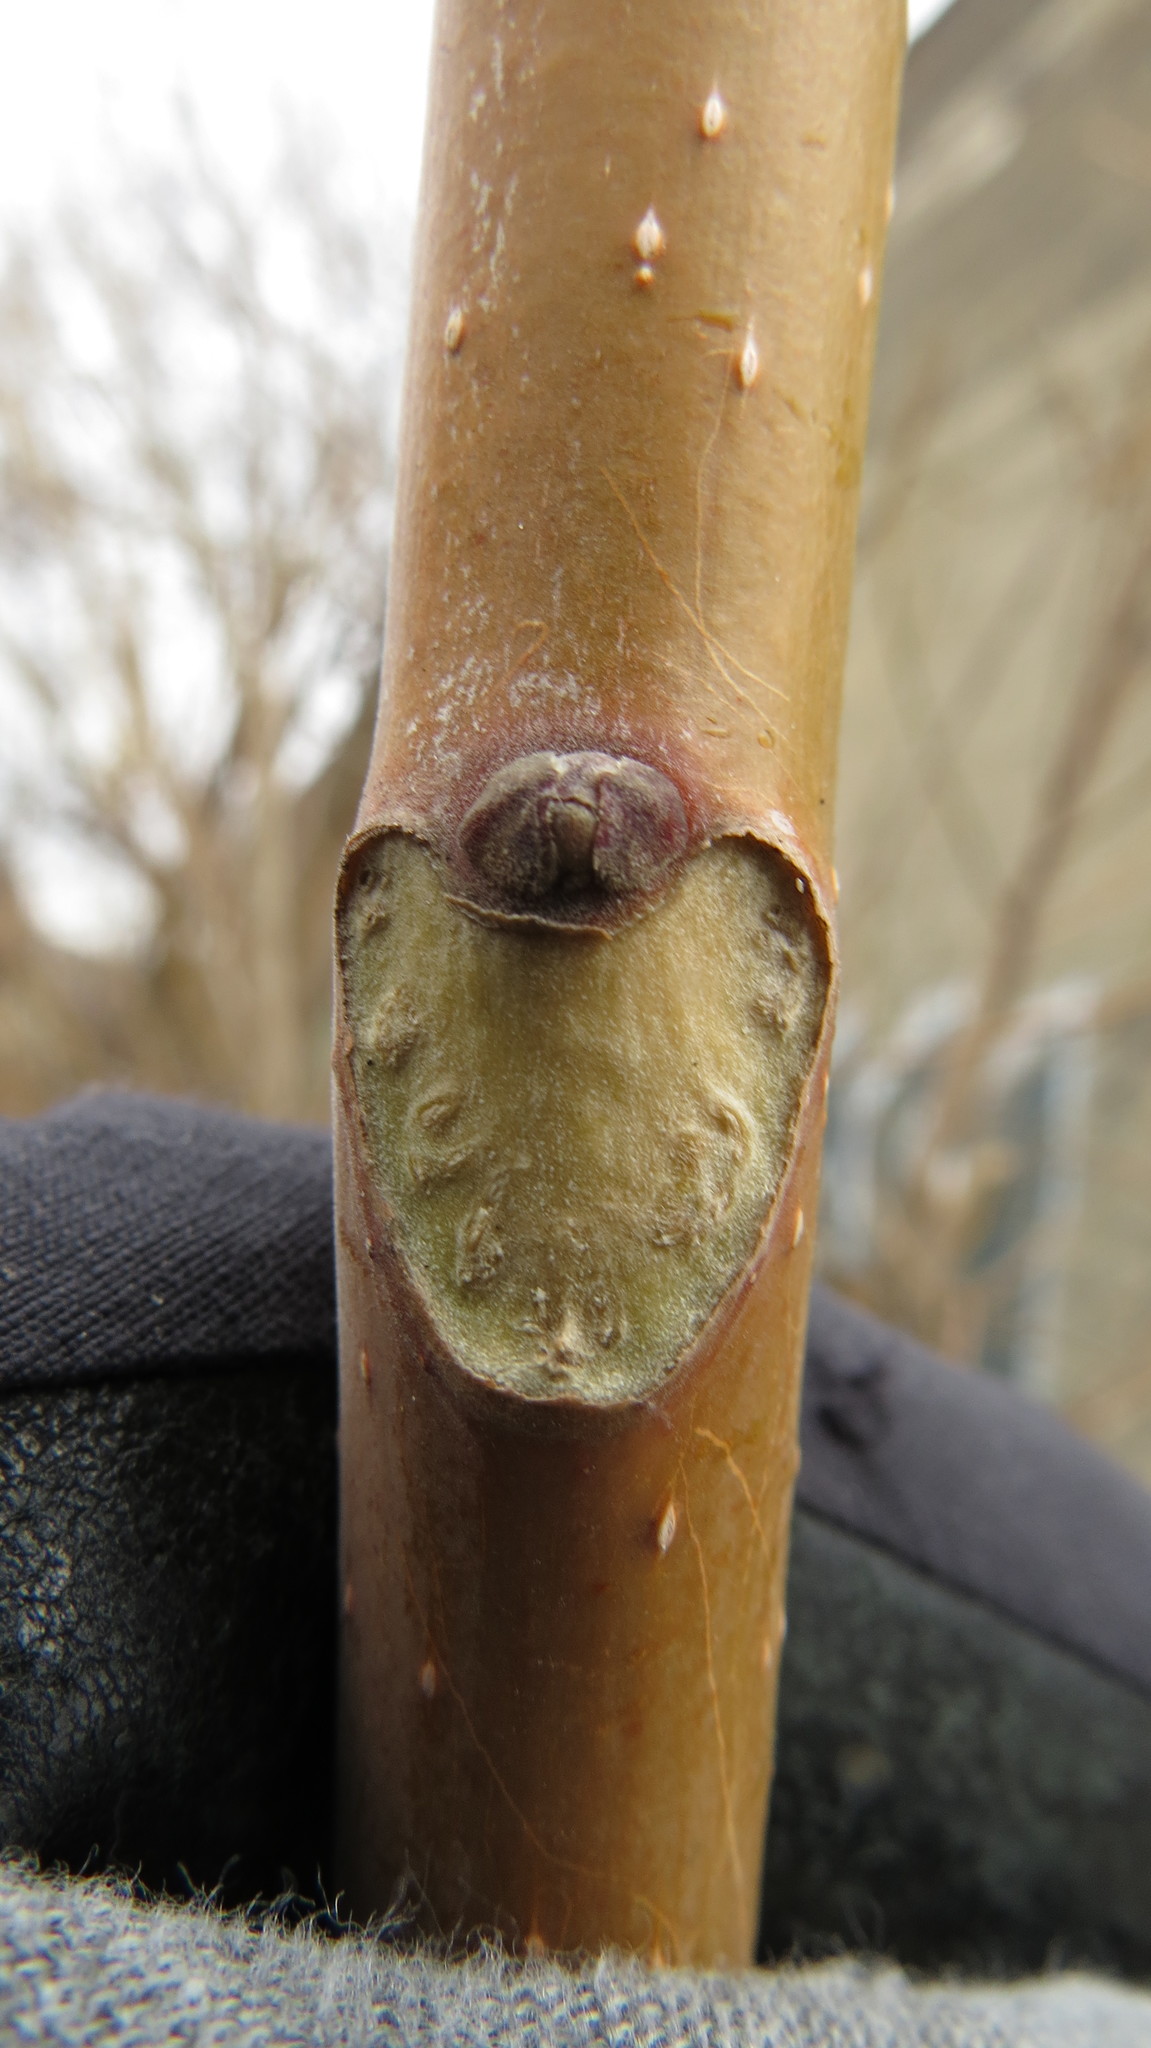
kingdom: Plantae
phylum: Tracheophyta
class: Magnoliopsida
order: Sapindales
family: Simaroubaceae
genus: Ailanthus
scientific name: Ailanthus altissima
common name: Tree-of-heaven
